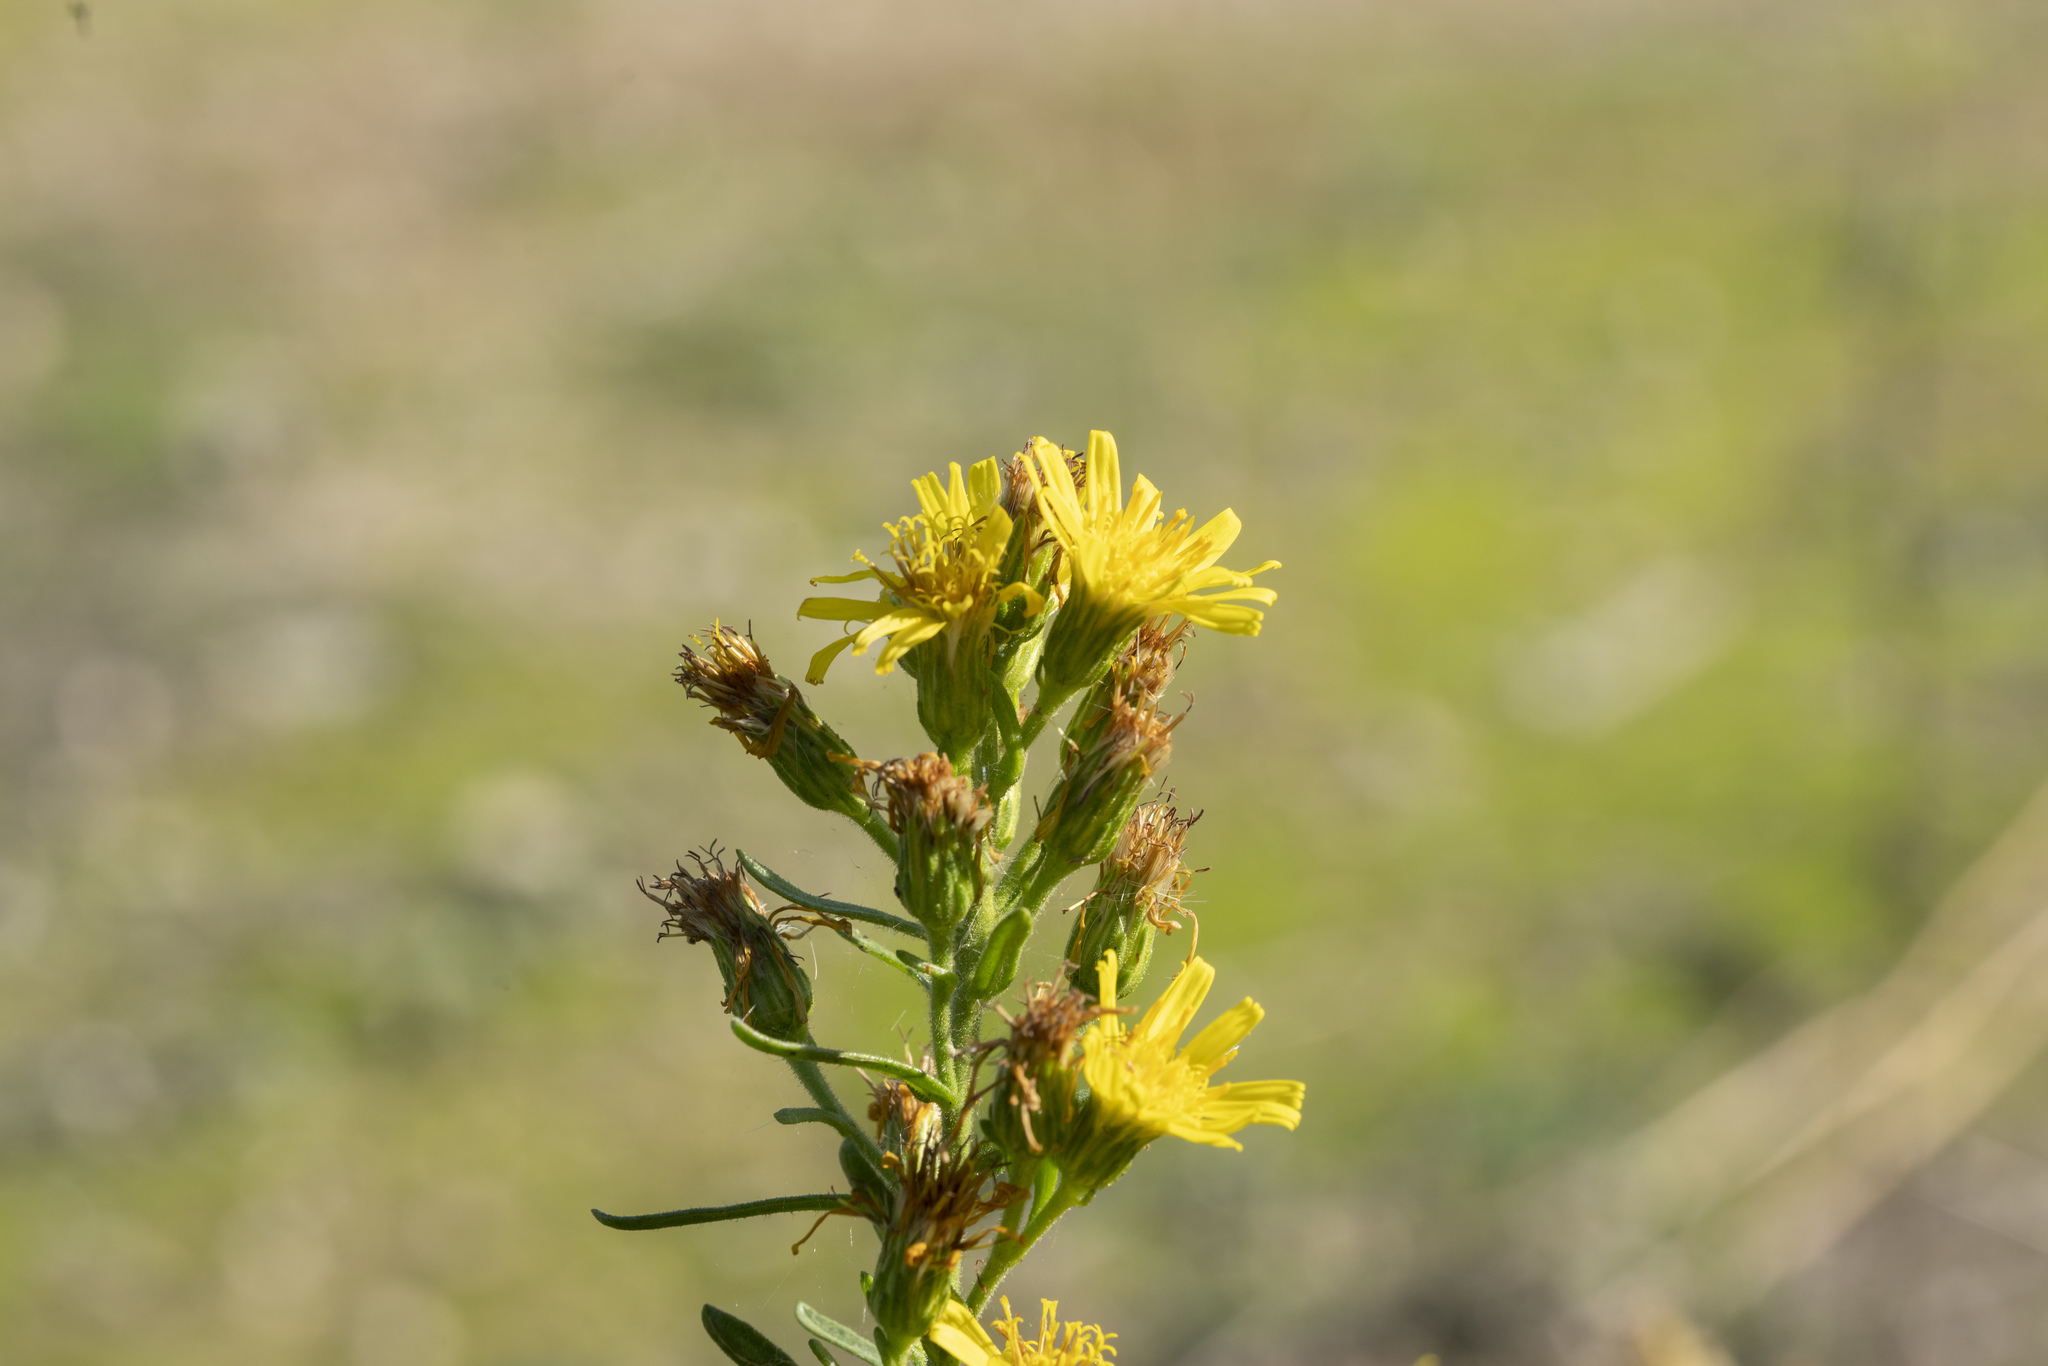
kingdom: Plantae
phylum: Tracheophyta
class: Magnoliopsida
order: Asterales
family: Asteraceae
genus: Dittrichia
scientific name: Dittrichia viscosa
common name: Woody fleabane
